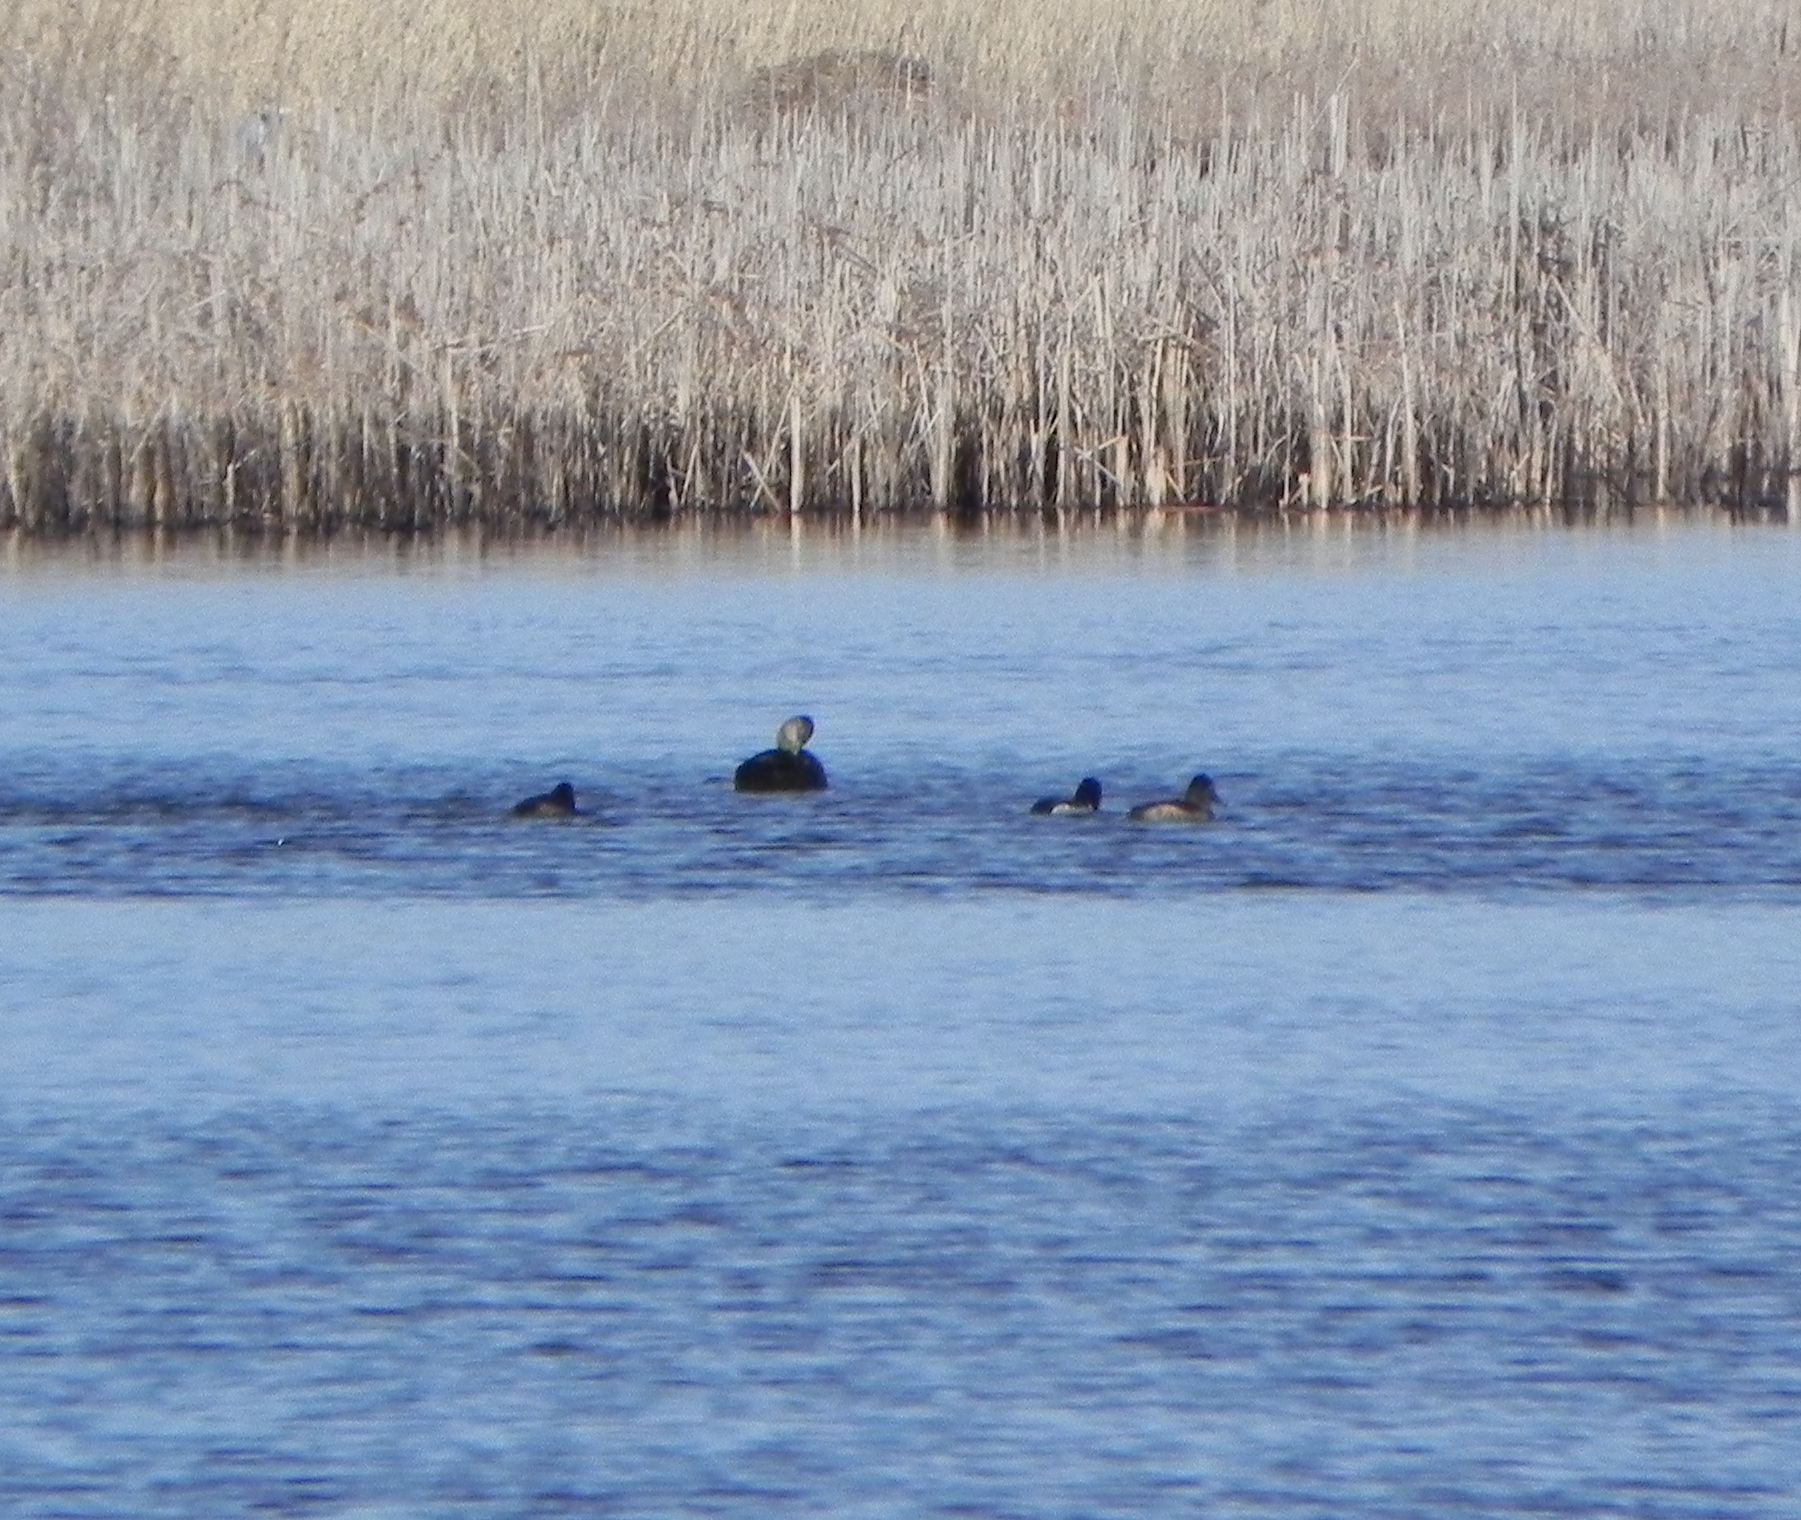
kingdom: Animalia
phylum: Chordata
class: Aves
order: Anseriformes
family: Anatidae
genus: Anas
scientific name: Anas rubripes
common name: American black duck
